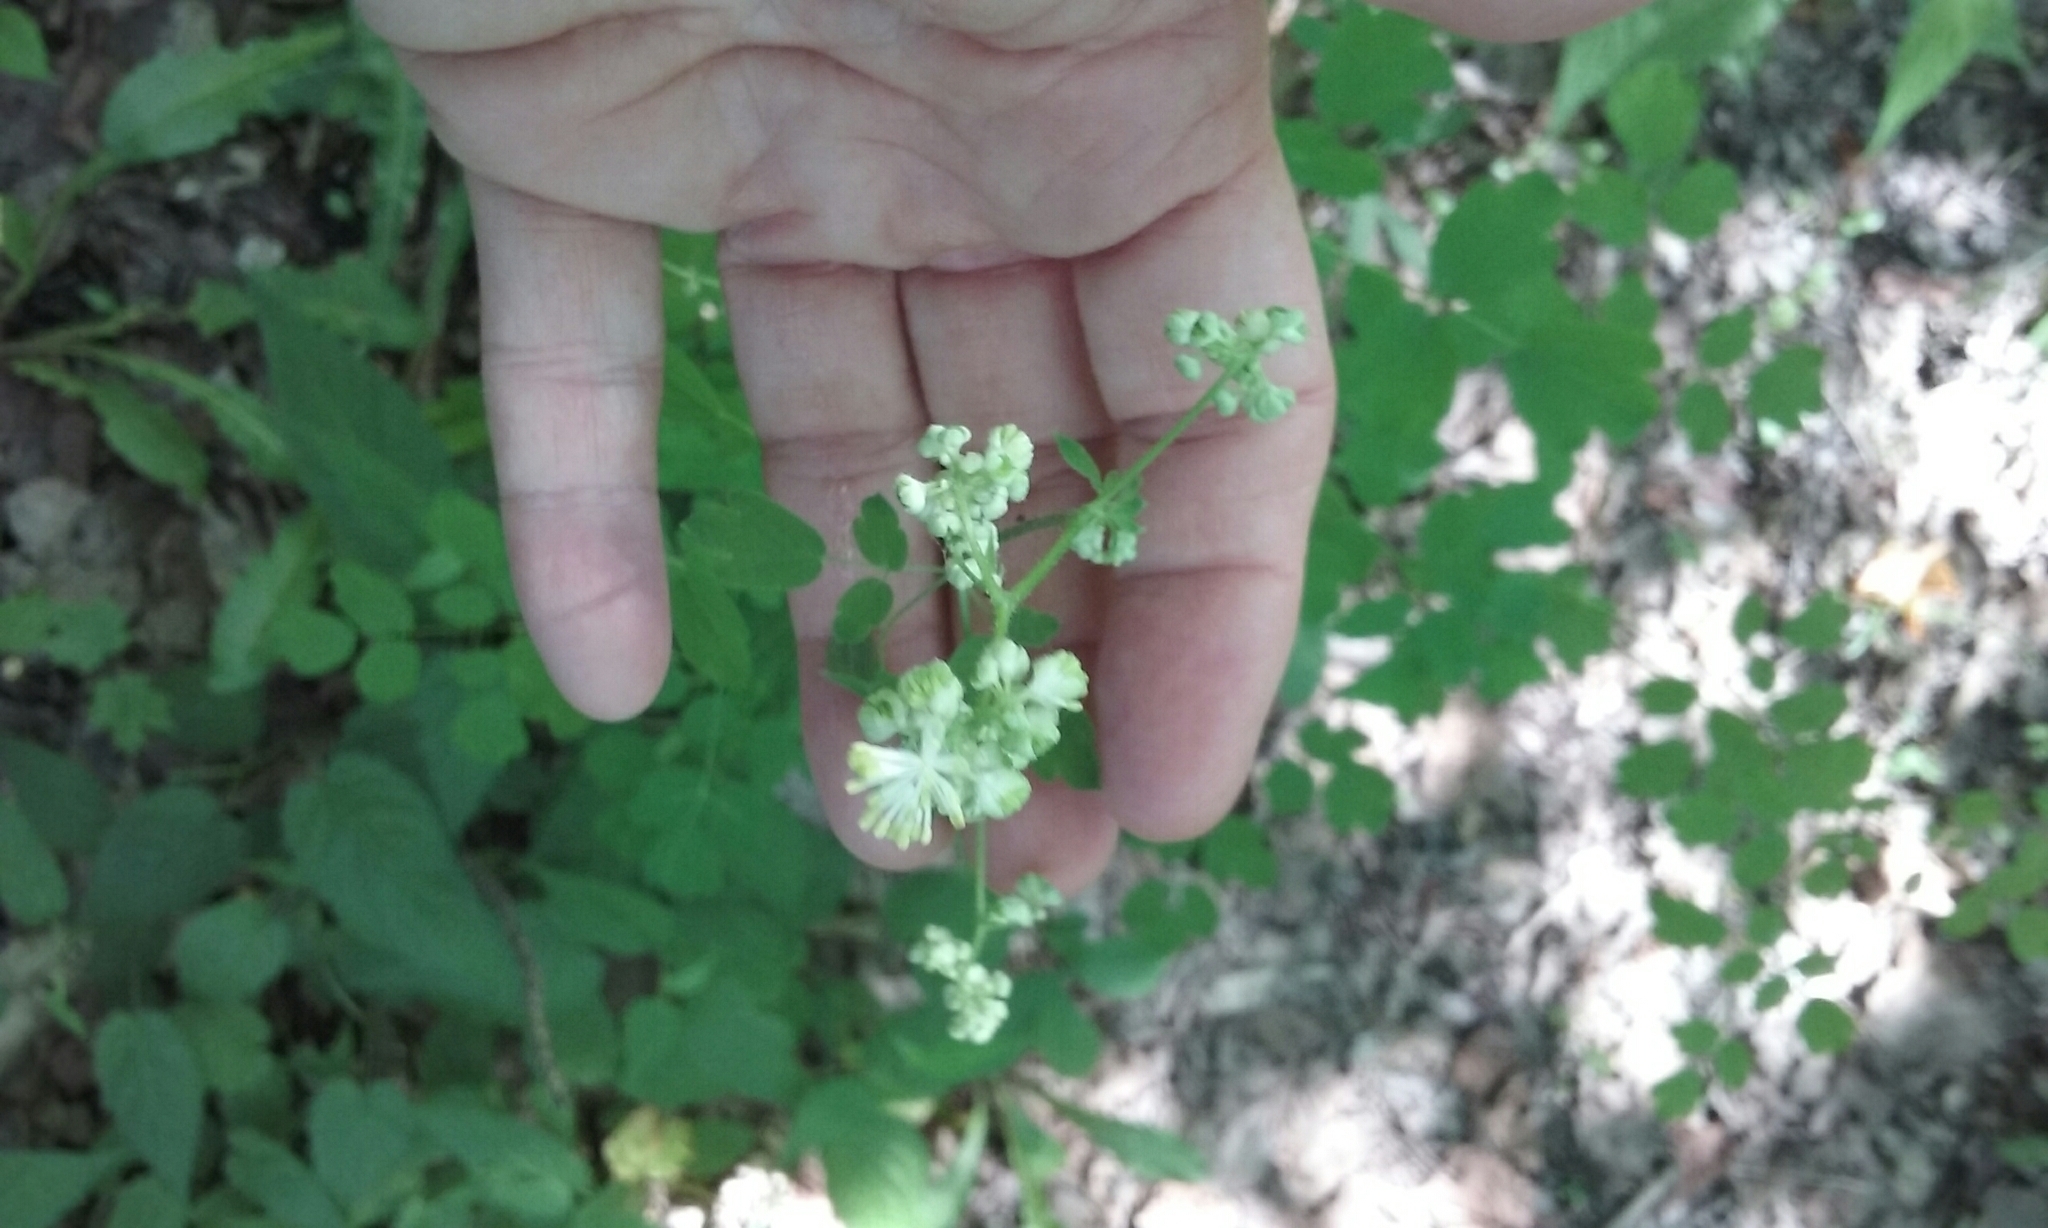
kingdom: Plantae
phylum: Tracheophyta
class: Magnoliopsida
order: Ranunculales
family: Ranunculaceae
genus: Thalictrum
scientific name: Thalictrum pubescens
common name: King-of-the-meadow
